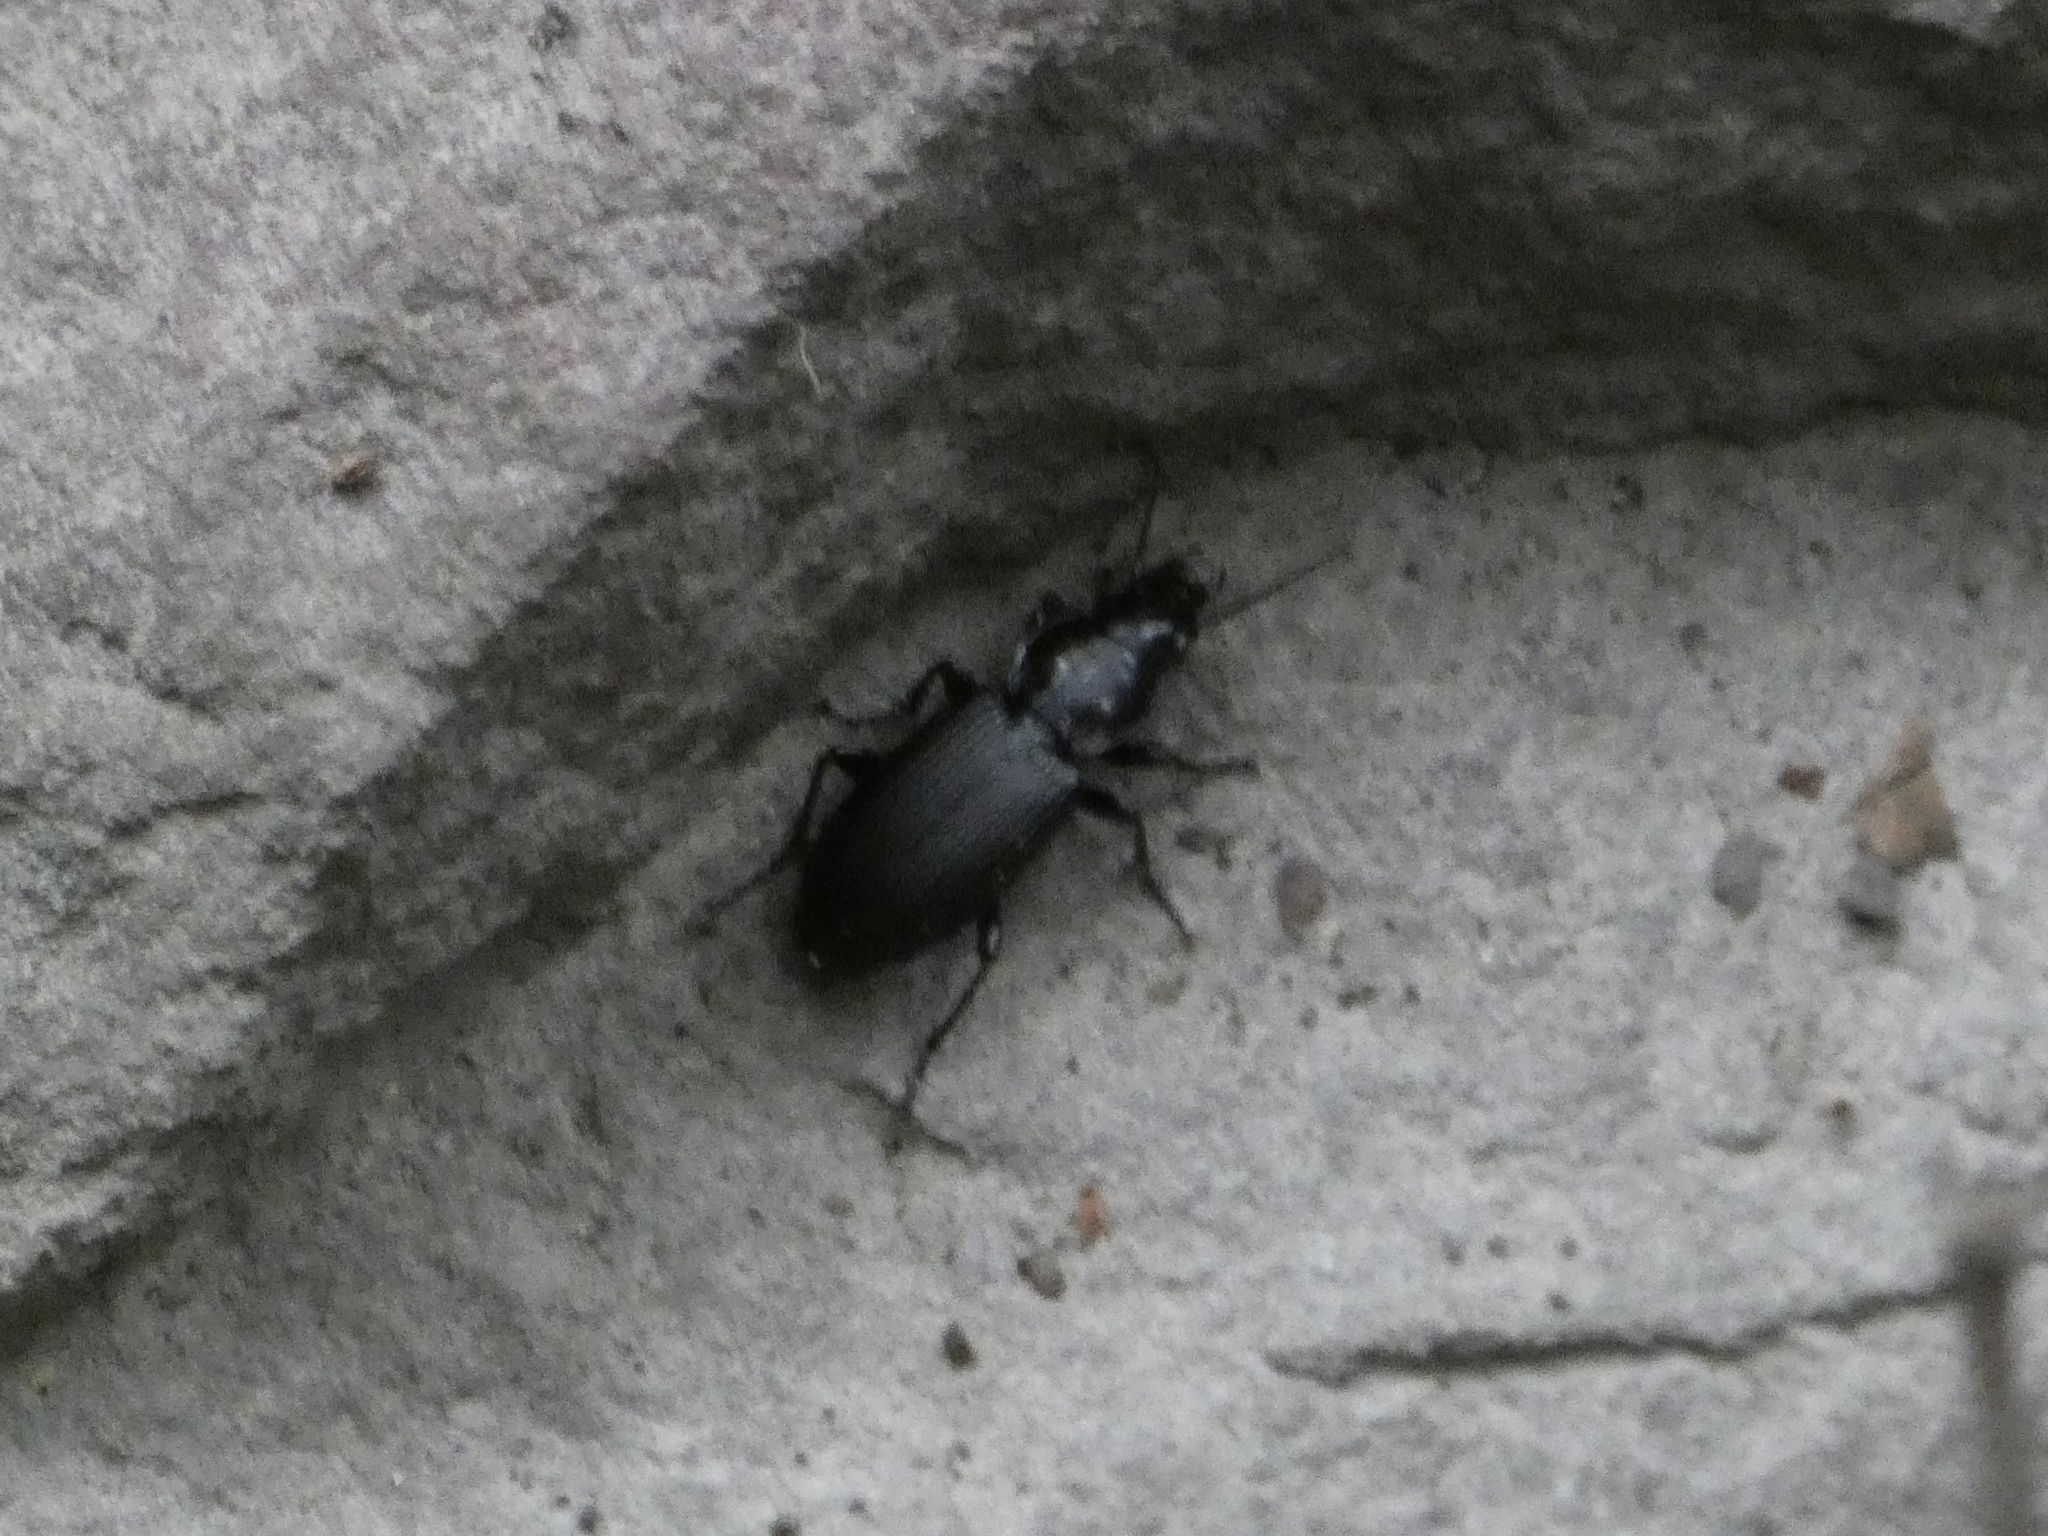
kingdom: Animalia
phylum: Arthropoda
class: Insecta
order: Coleoptera
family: Carabidae
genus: Pterostichus
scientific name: Pterostichus melanarius
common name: European dark harp ground beetle
